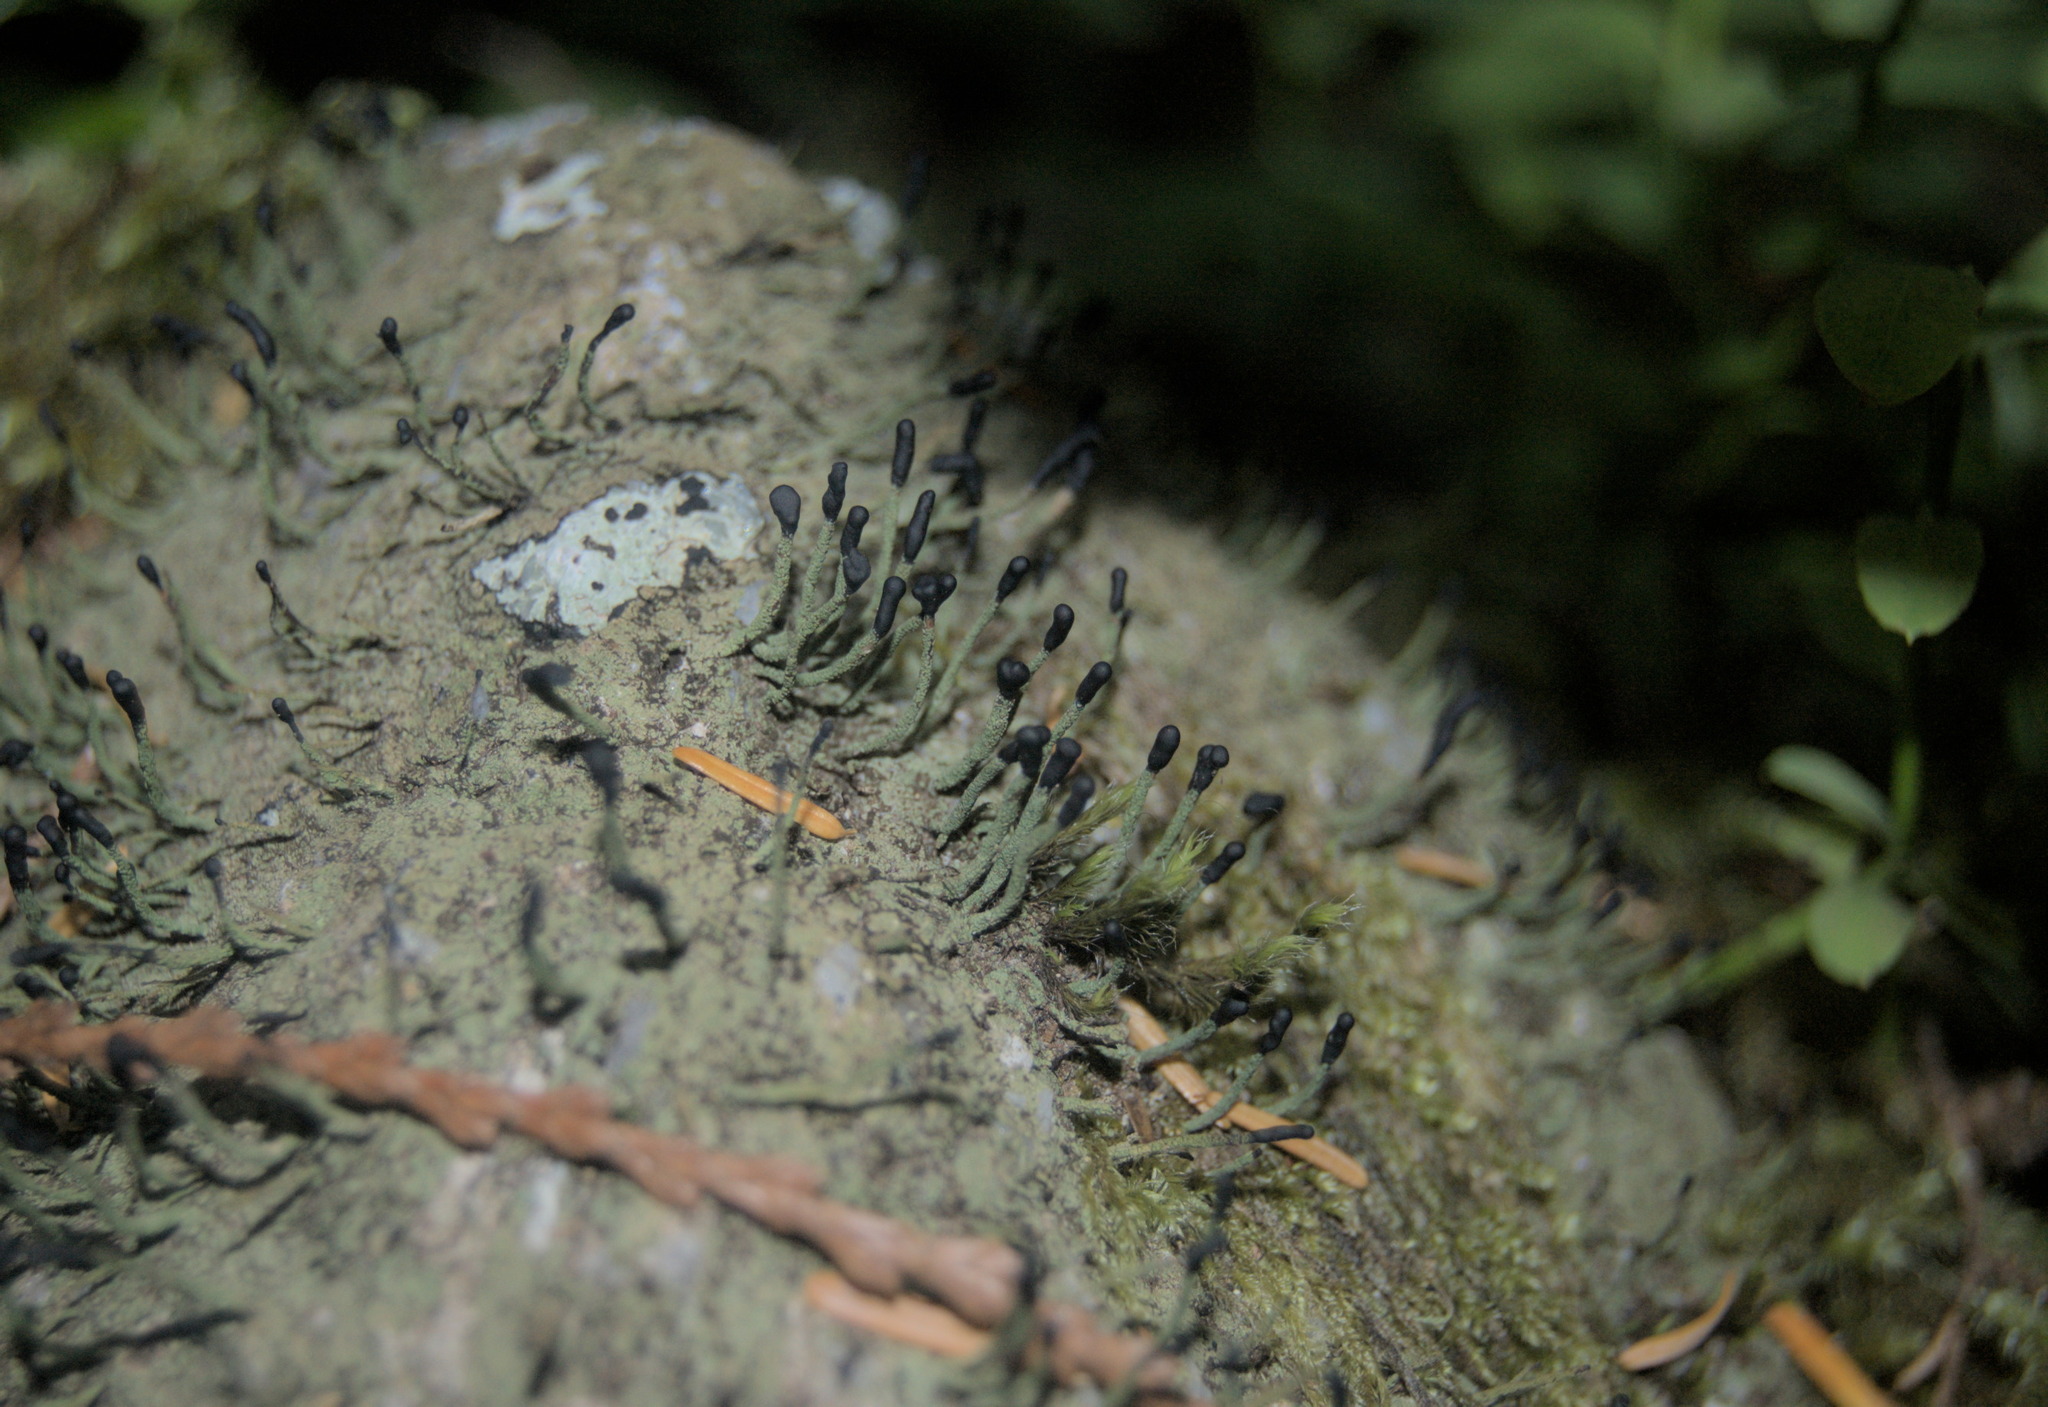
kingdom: Fungi
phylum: Ascomycota
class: Lecanoromycetes
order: Lecanorales
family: Cladoniaceae
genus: Pilophorus
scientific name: Pilophorus clavatus
